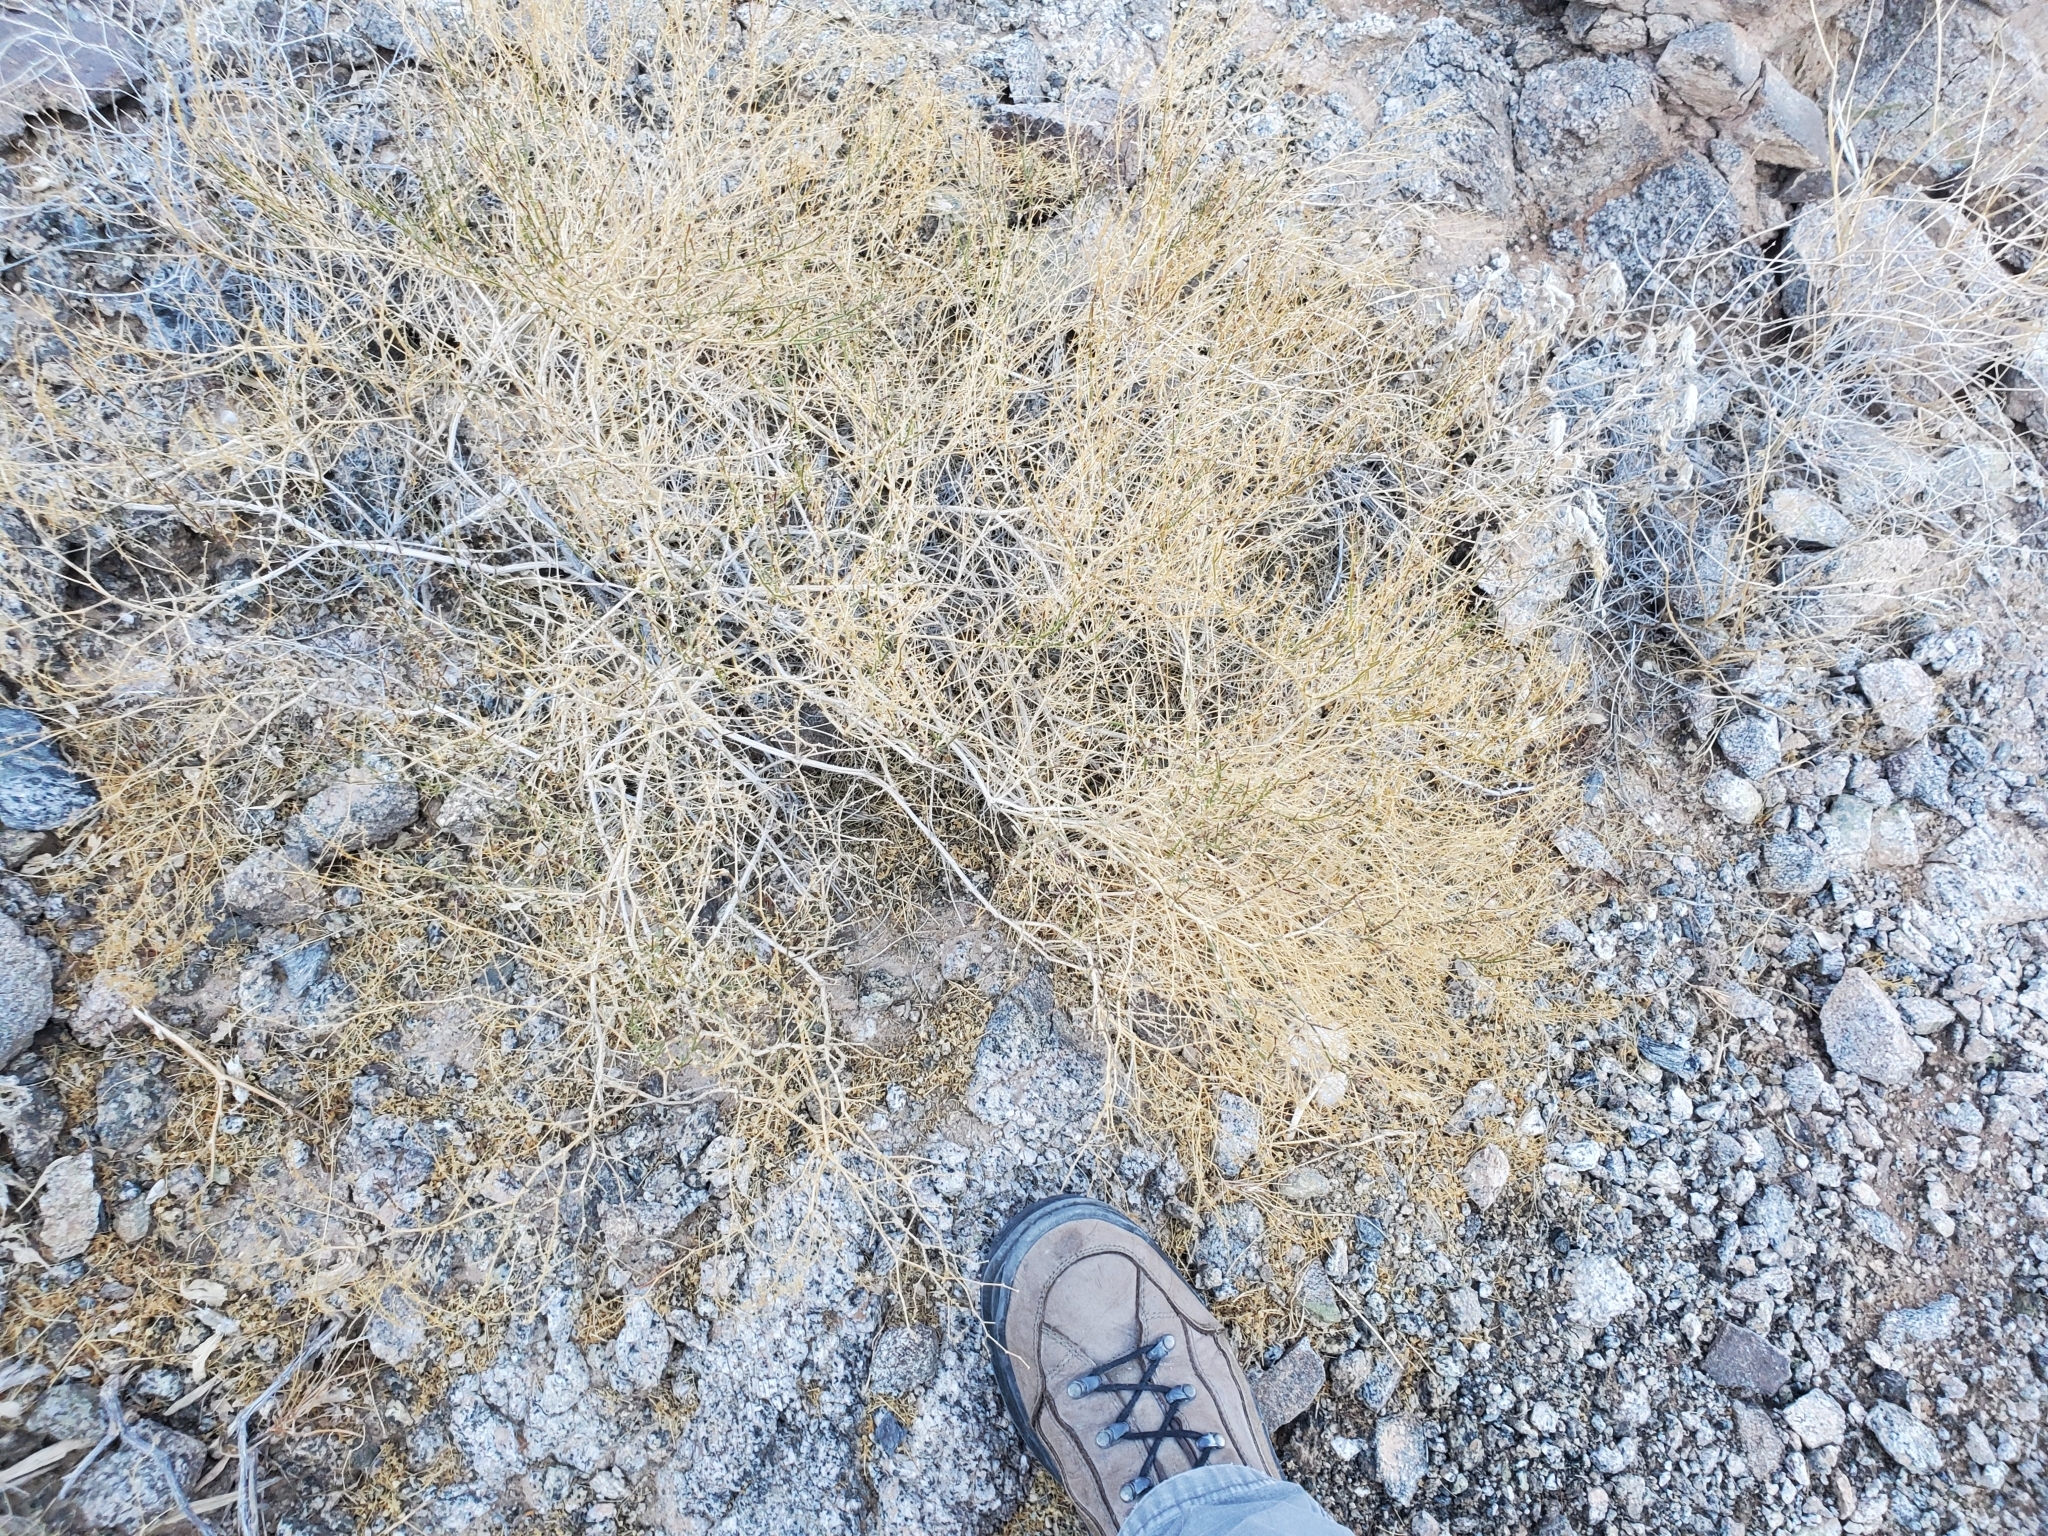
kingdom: Plantae
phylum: Tracheophyta
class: Magnoliopsida
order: Zygophyllales
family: Zygophyllaceae
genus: Fagonia
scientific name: Fagonia laevis
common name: California fagonbush
